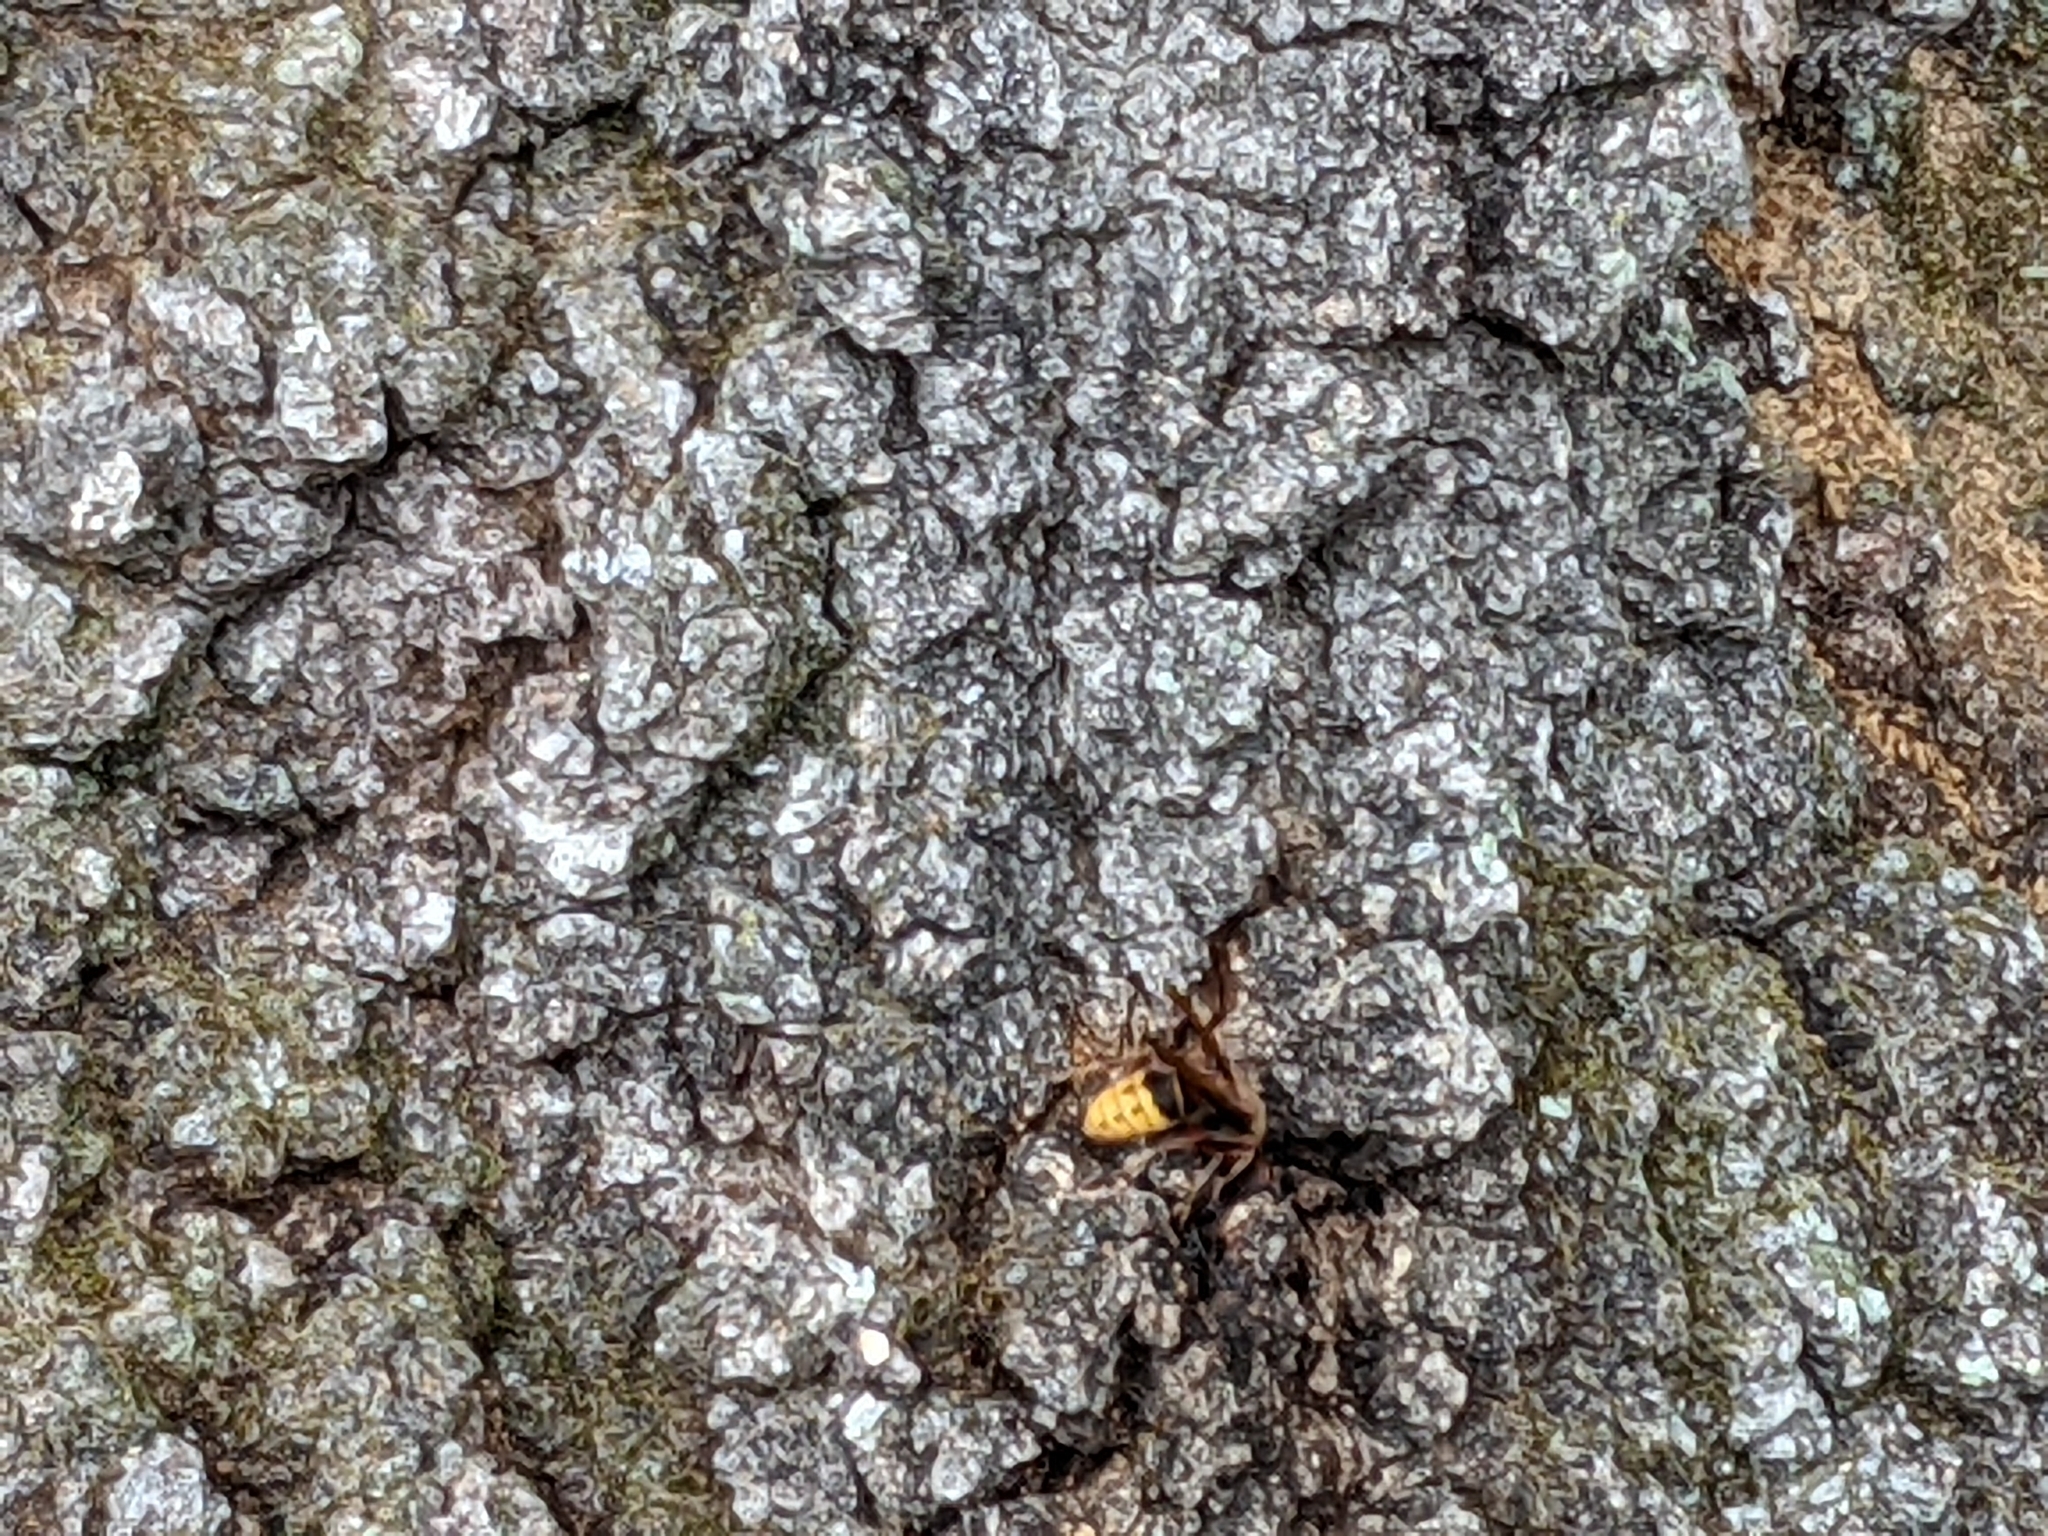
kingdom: Animalia
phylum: Arthropoda
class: Insecta
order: Hymenoptera
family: Vespidae
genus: Vespa
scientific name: Vespa crabro
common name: Hornet
